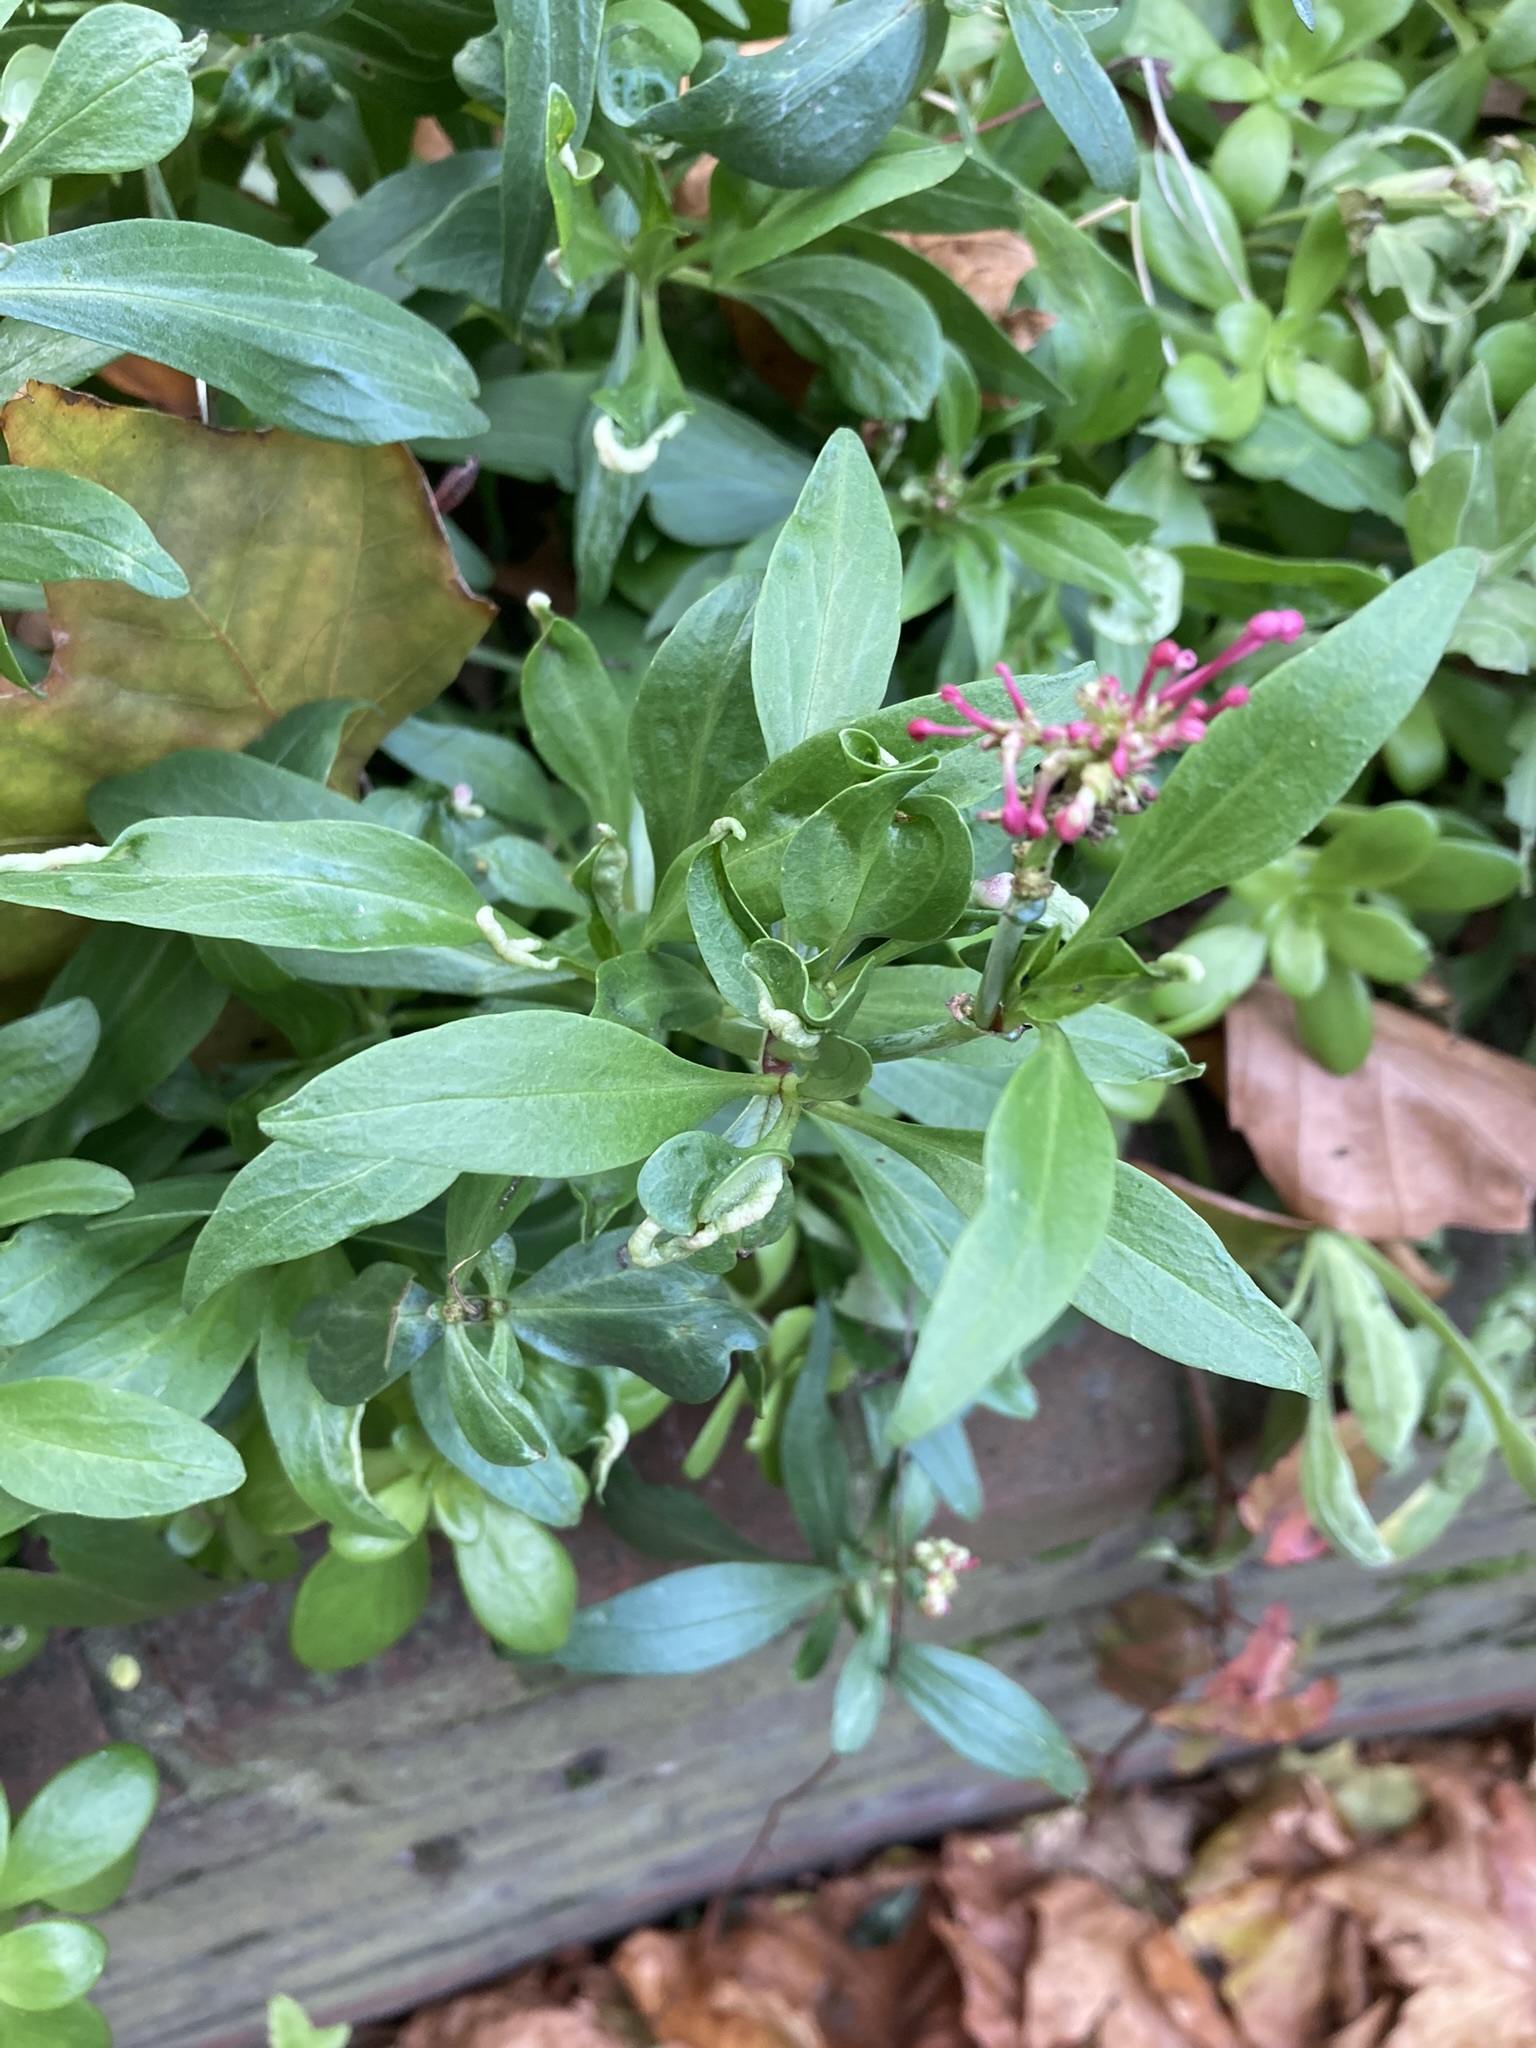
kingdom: Animalia
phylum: Arthropoda
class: Insecta
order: Hemiptera
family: Triozidae
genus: Trioza
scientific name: Trioza centranthi
